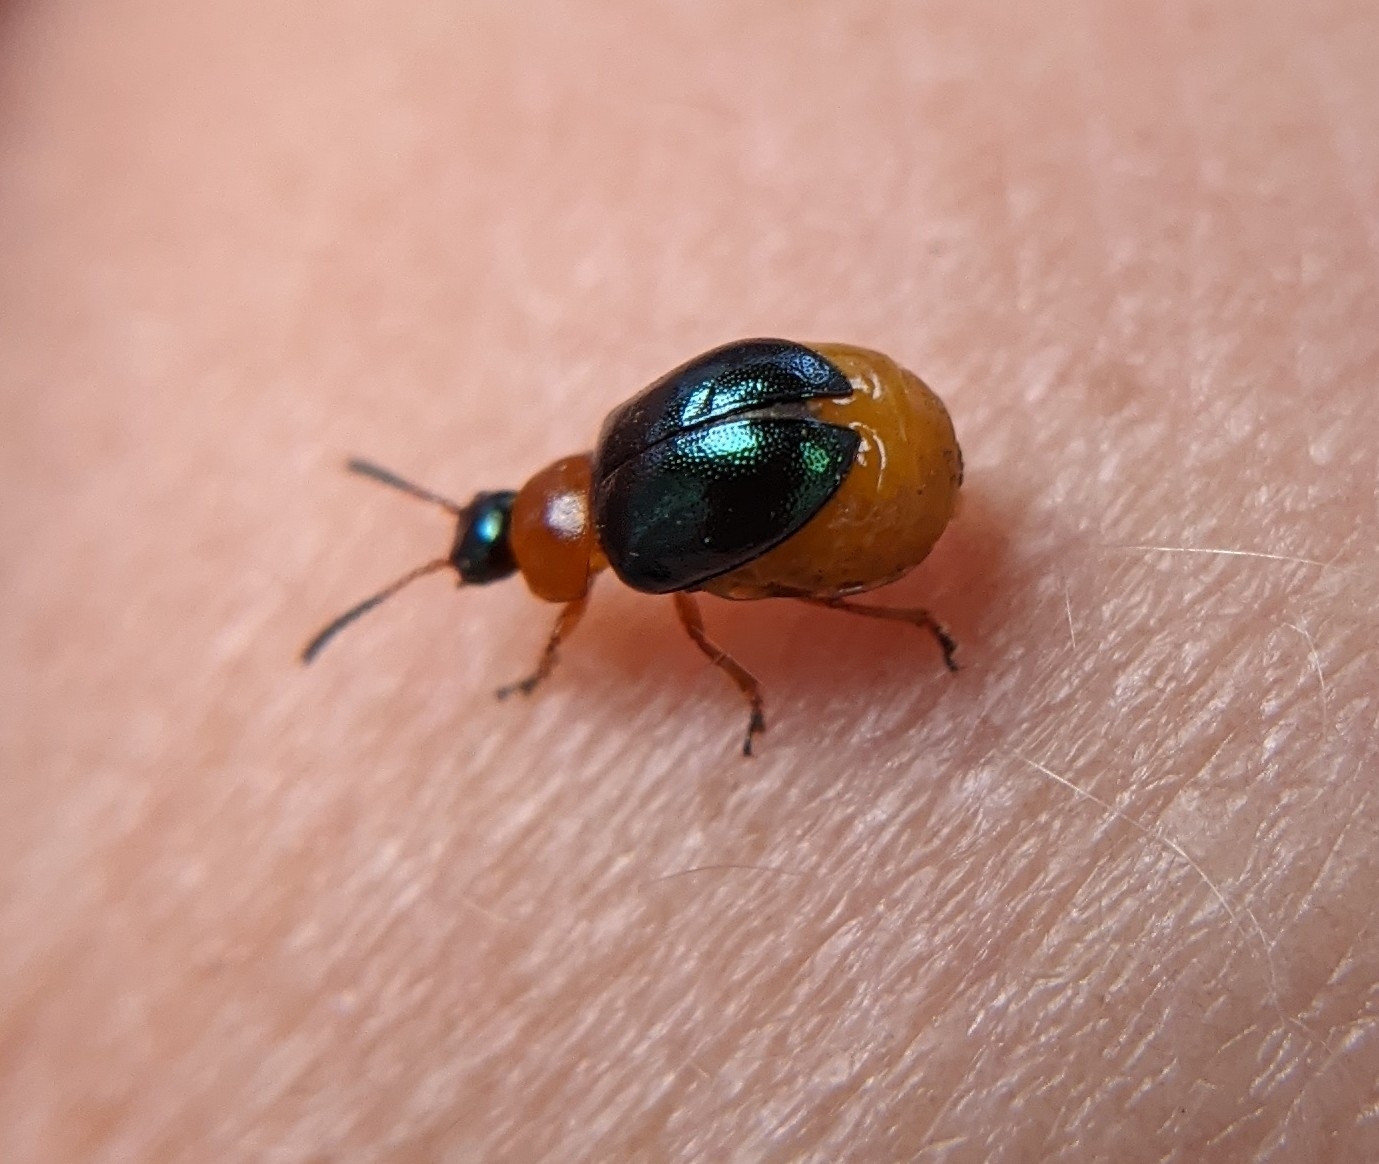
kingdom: Animalia
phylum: Arthropoda
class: Insecta
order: Coleoptera
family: Chrysomelidae
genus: Gastrophysa
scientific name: Gastrophysa polygoni
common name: Knotweed leaf beetle
